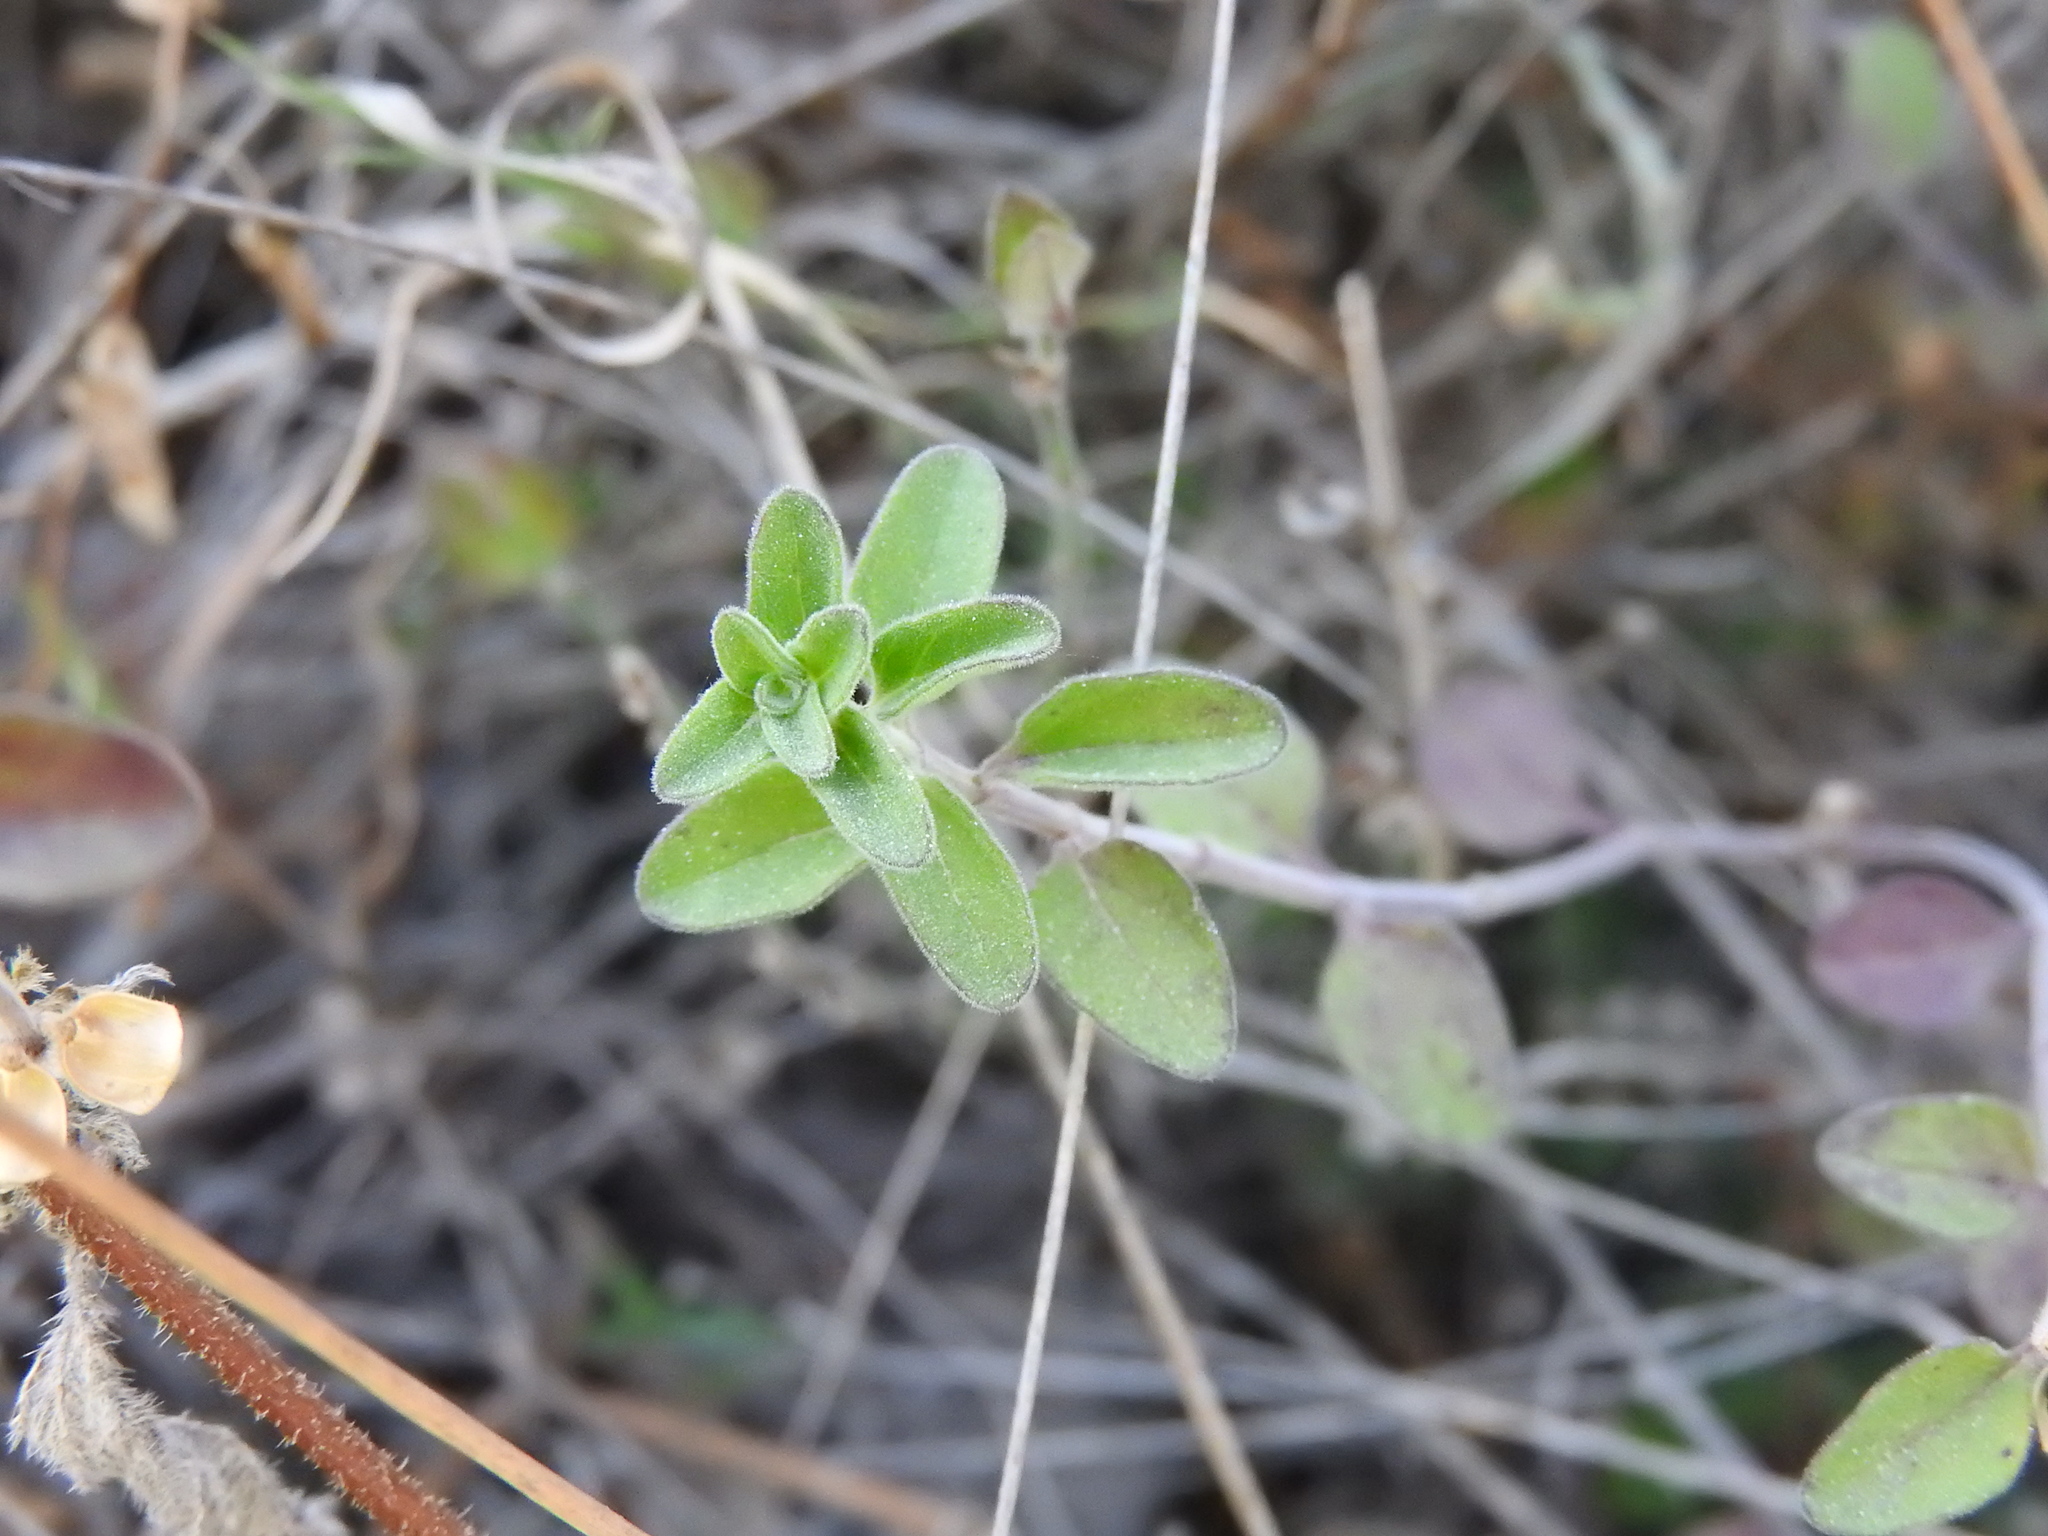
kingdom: Plantae
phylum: Tracheophyta
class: Magnoliopsida
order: Lamiales
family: Lamiaceae
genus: Scutellaria
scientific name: Scutellaria potosina
